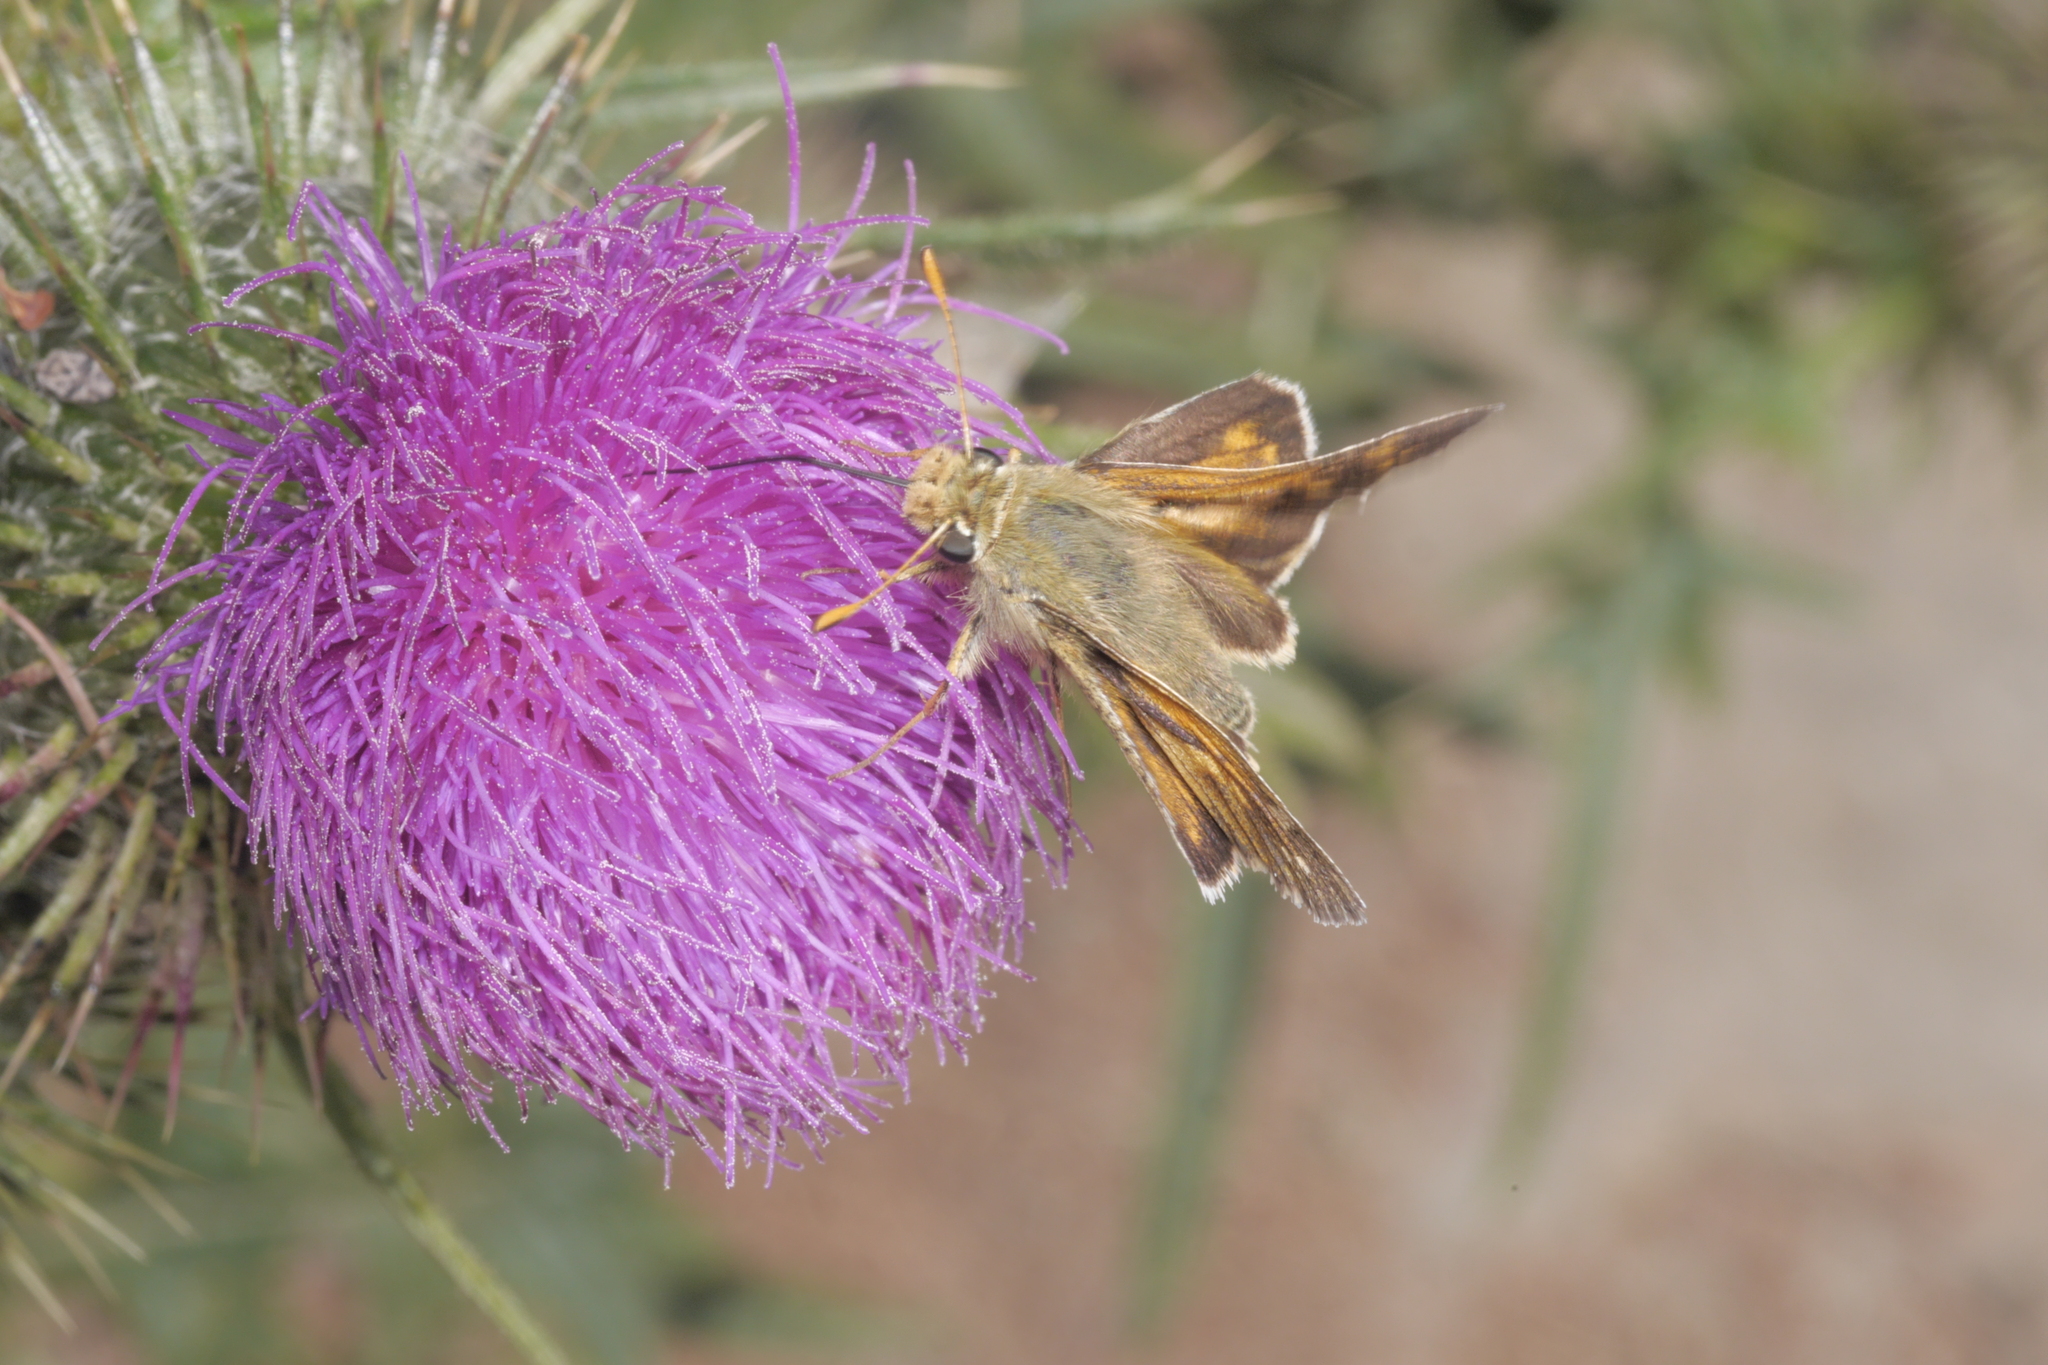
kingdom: Animalia
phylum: Arthropoda
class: Insecta
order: Lepidoptera
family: Hesperiidae
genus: Hesperia
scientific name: Hesperia comma
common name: Common branded skipper
